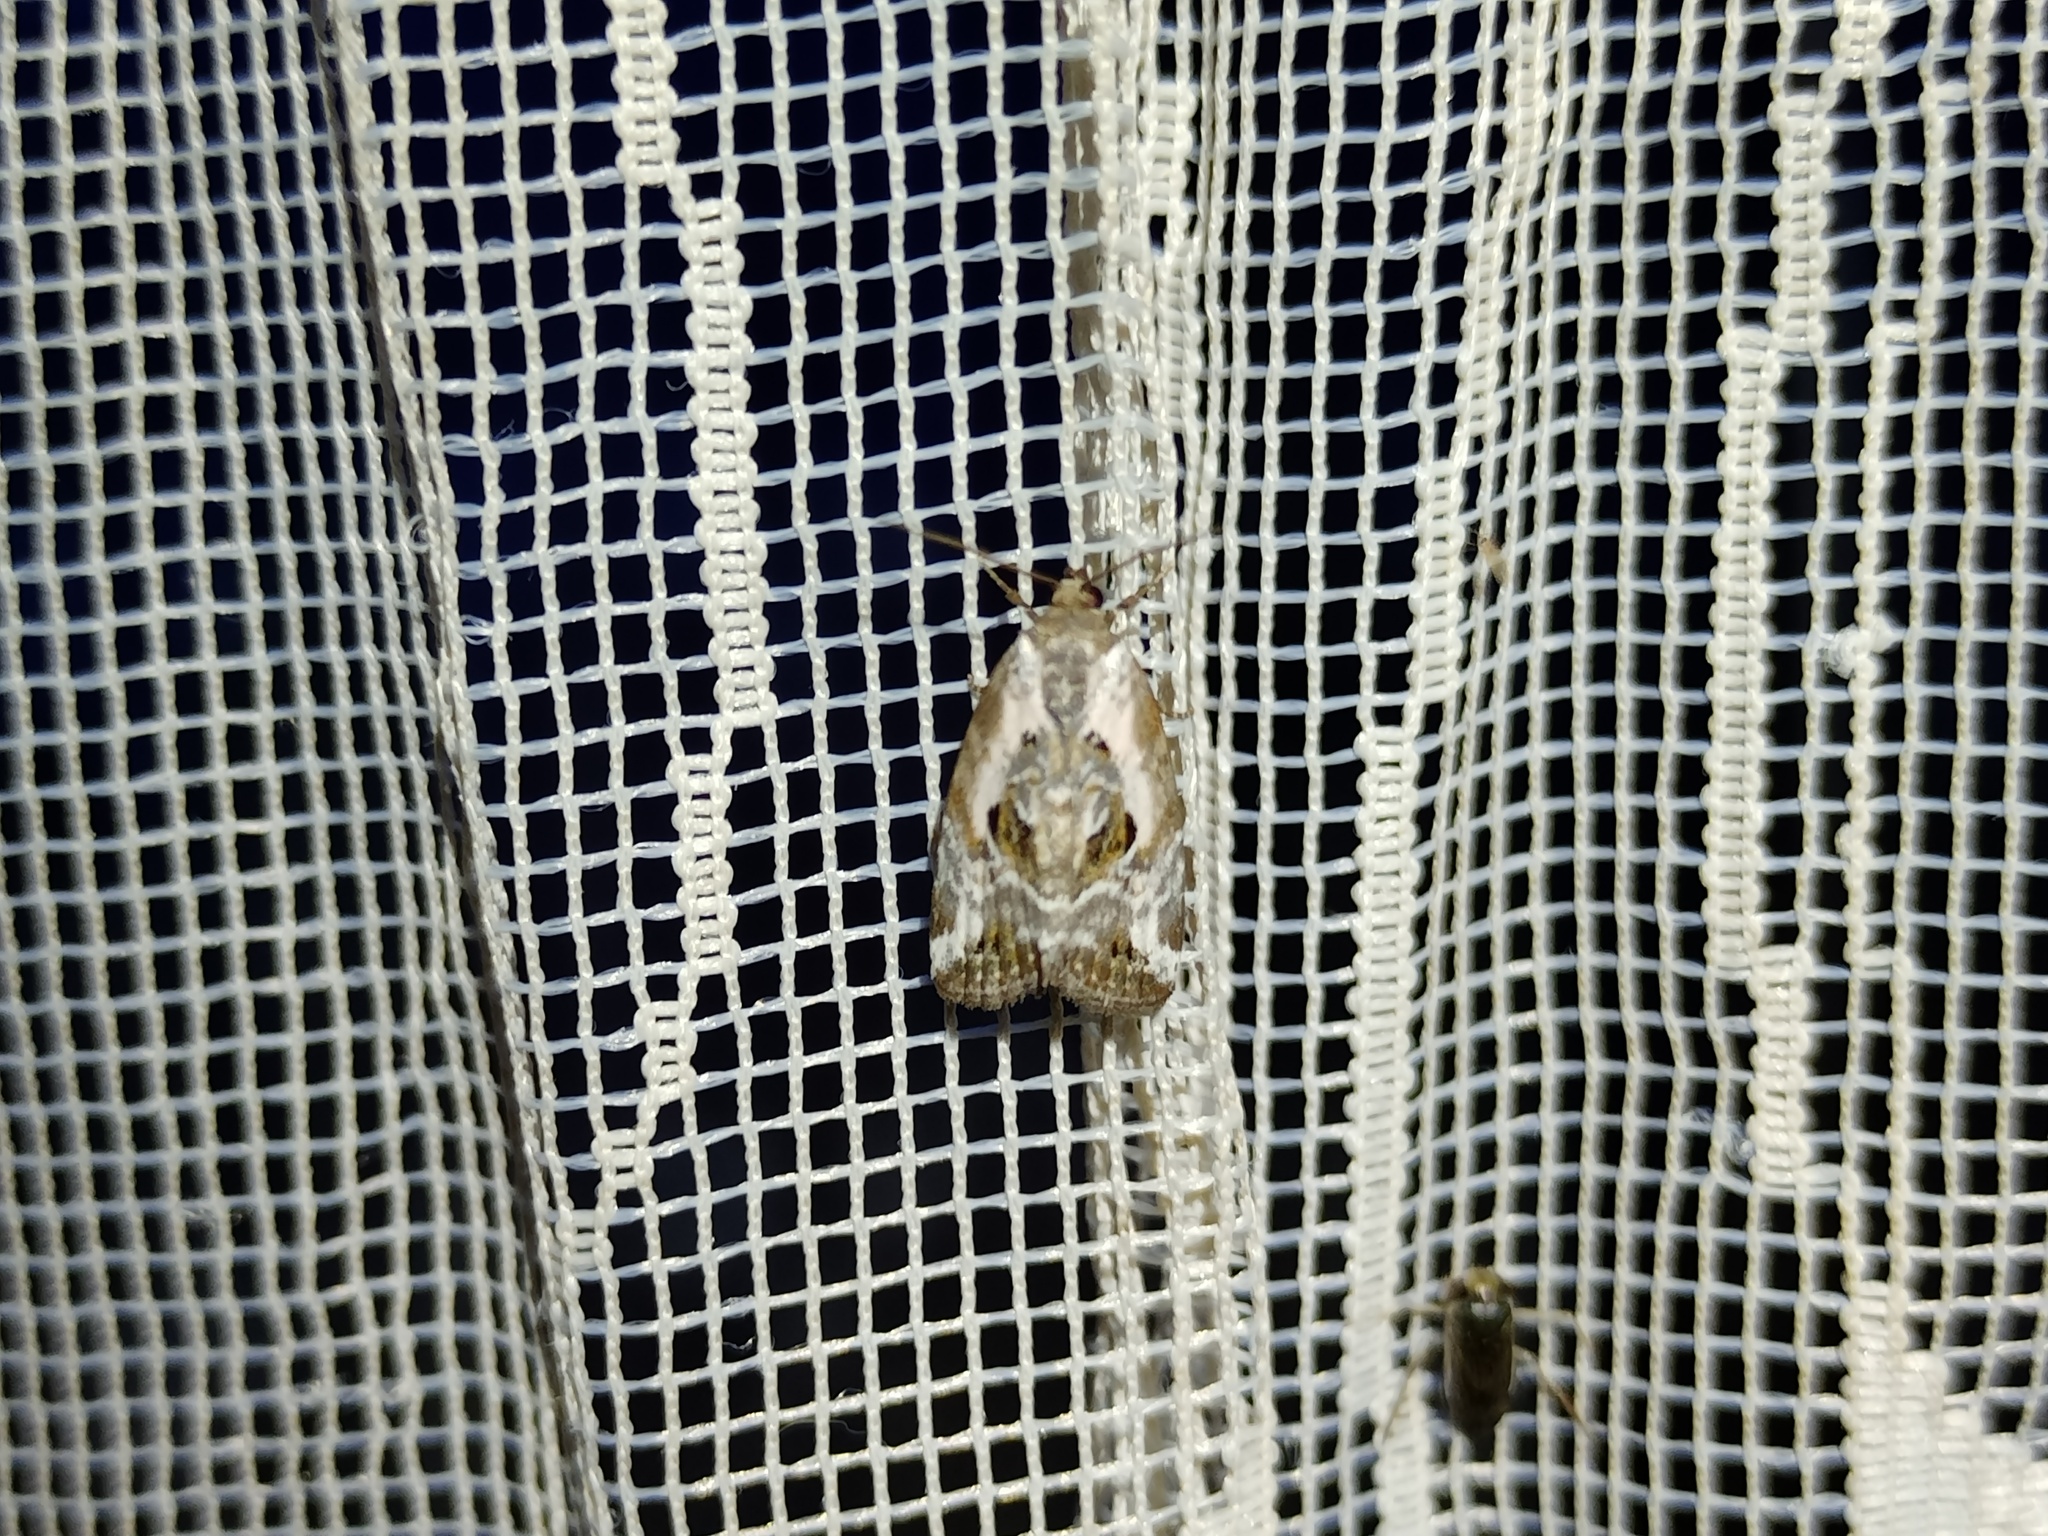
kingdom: Animalia
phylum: Arthropoda
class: Insecta
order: Lepidoptera
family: Noctuidae
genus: Elaphria
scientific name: Elaphria venustula
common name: Rosy marbled
